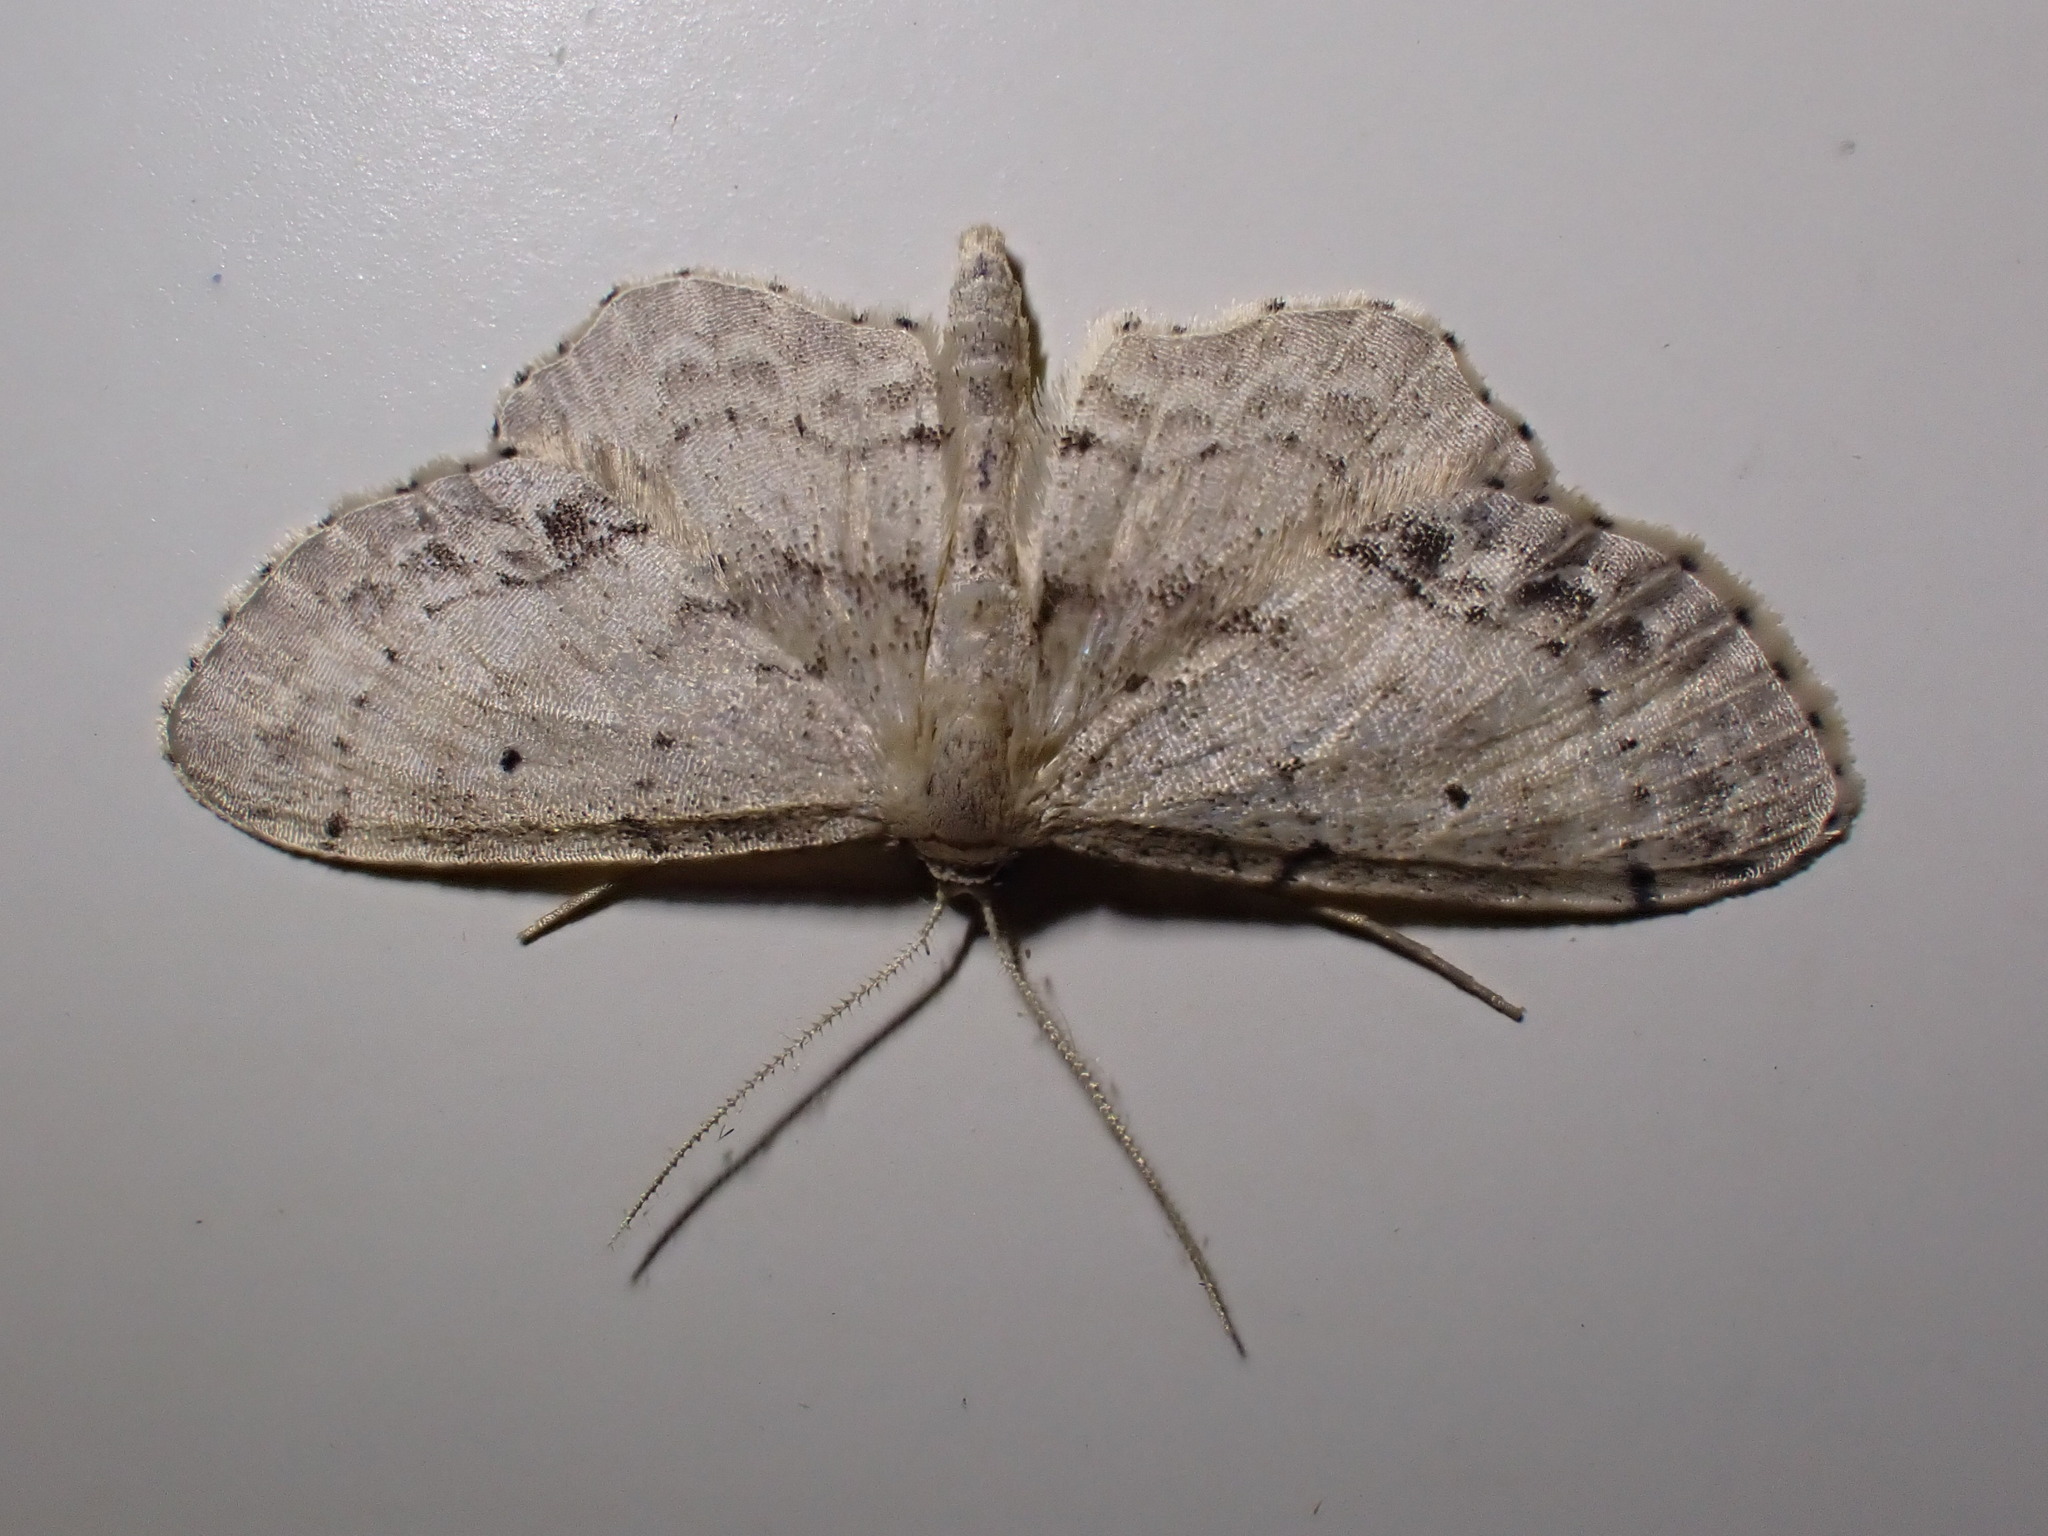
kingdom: Animalia
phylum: Arthropoda
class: Insecta
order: Lepidoptera
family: Geometridae
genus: Idaea
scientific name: Idaea dimidiata
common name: Single-dotted wave
